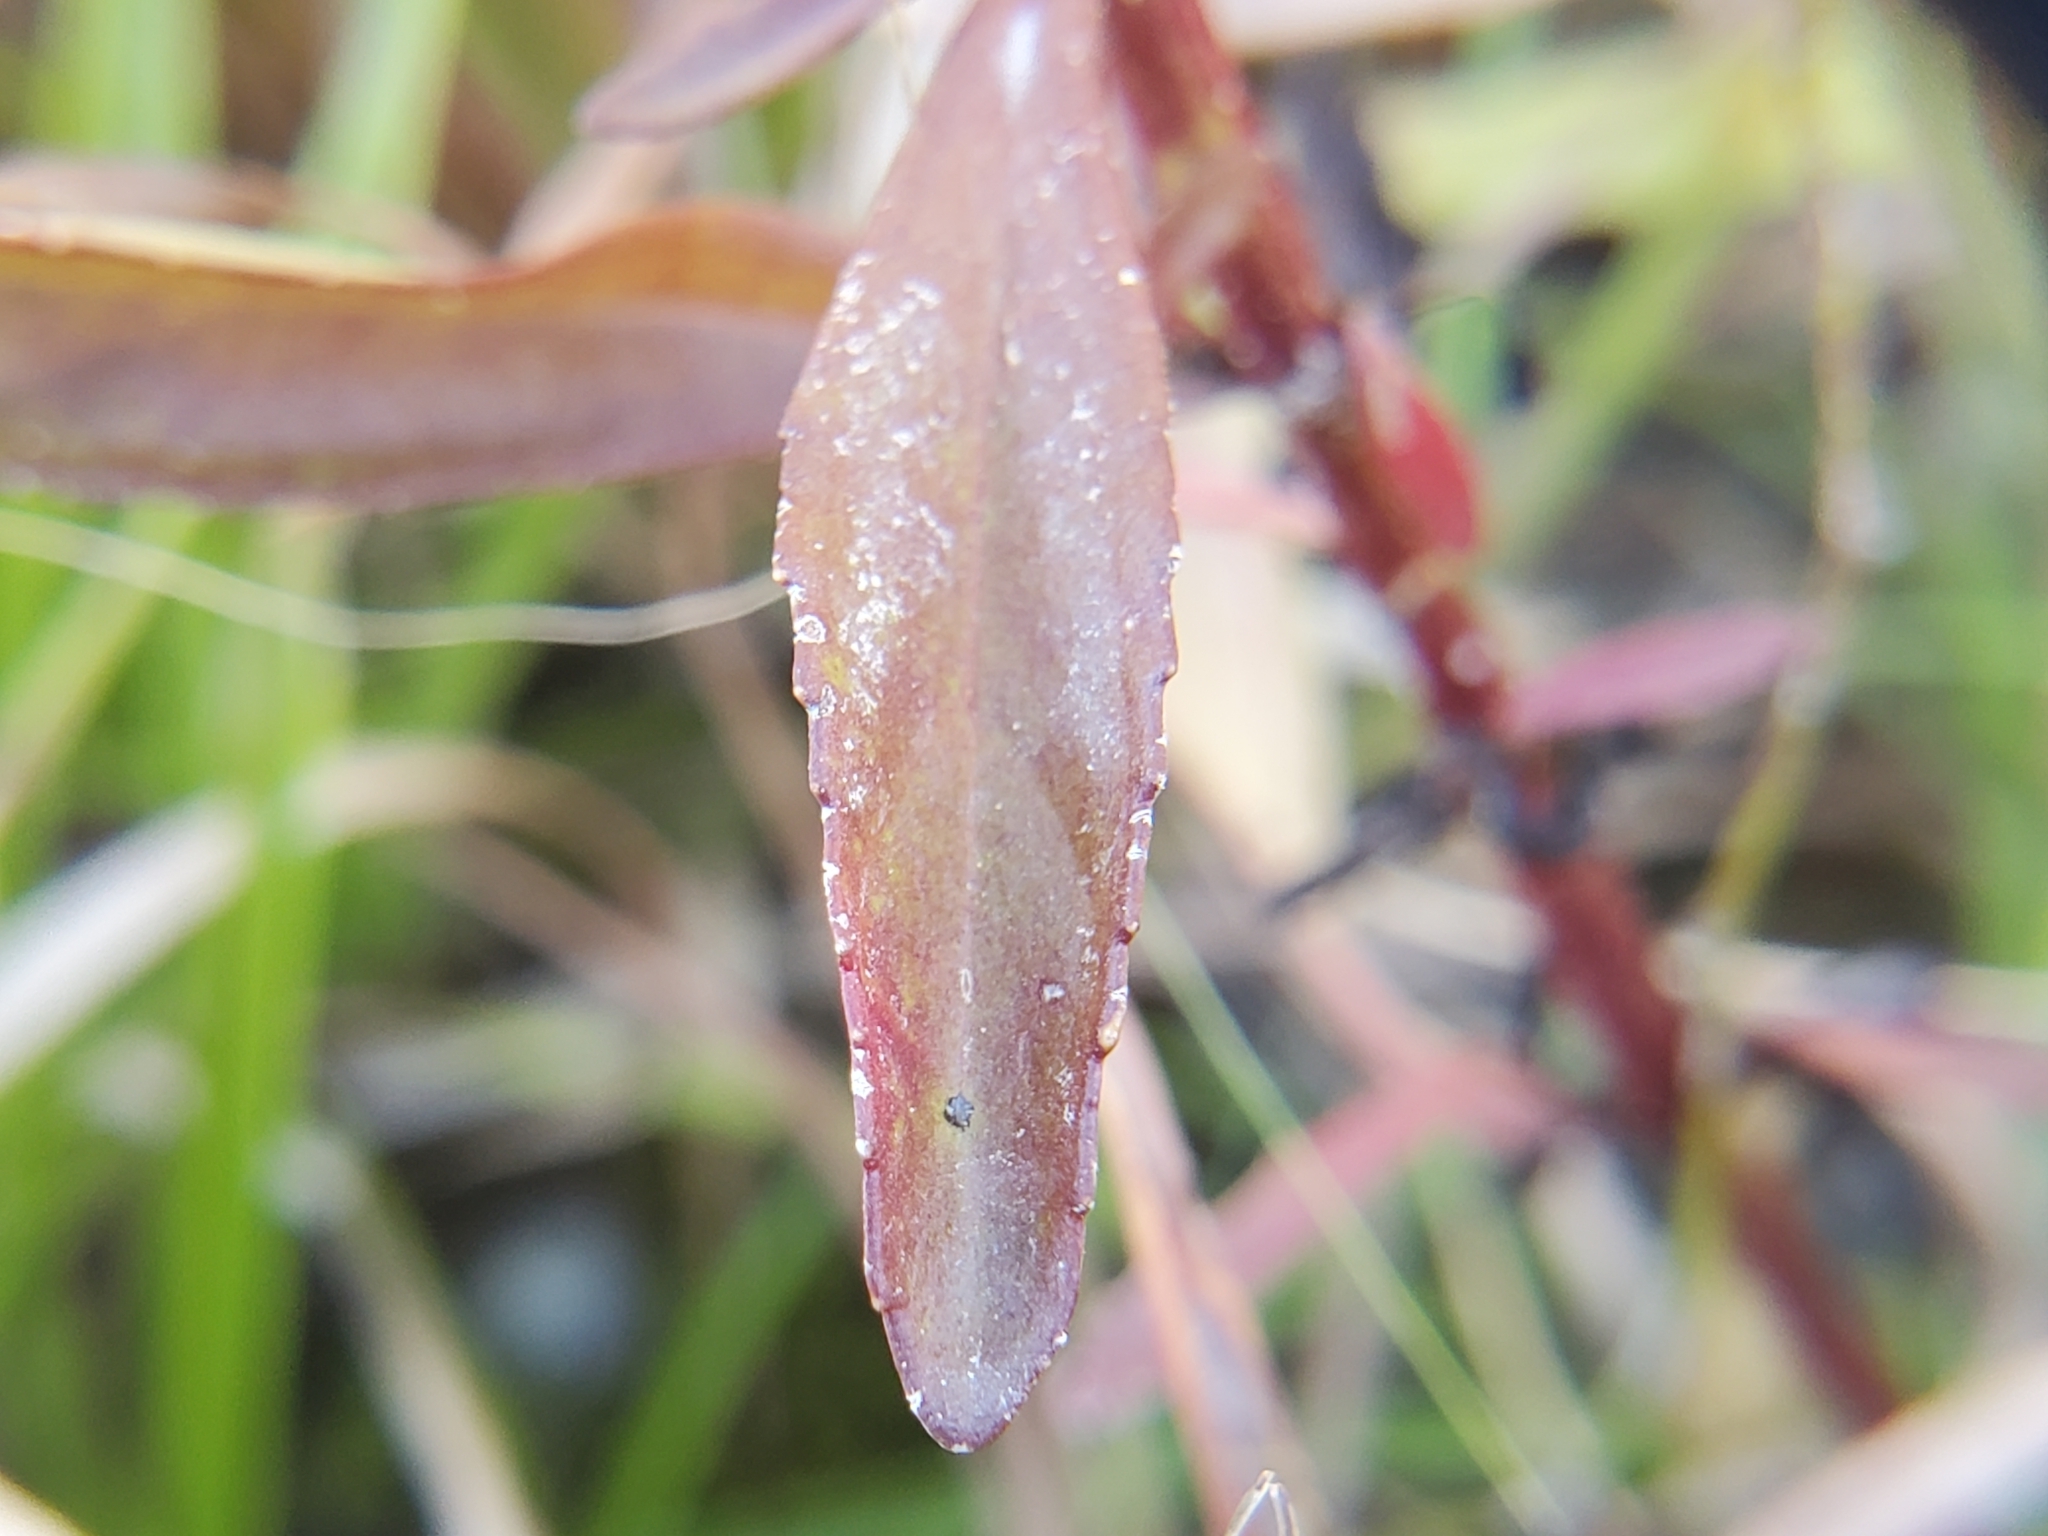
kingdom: Plantae
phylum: Tracheophyta
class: Magnoliopsida
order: Lamiales
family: Plantaginaceae
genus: Mecardonia
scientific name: Mecardonia acuminata
